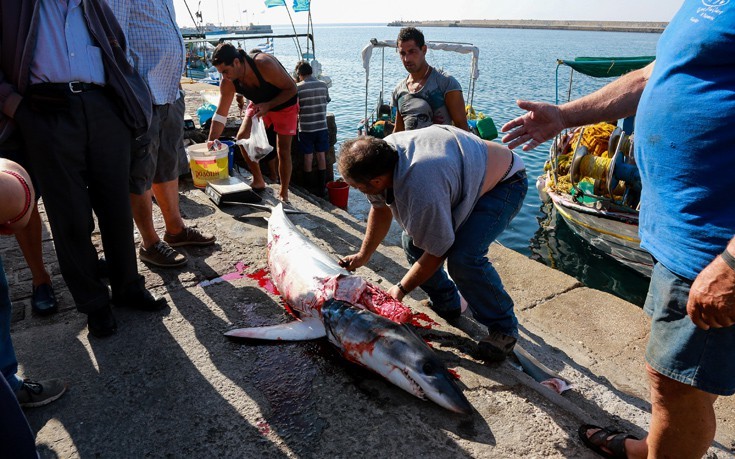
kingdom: Animalia
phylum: Chordata
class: Elasmobranchii
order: Lamniformes
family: Lamnidae
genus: Isurus
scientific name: Isurus oxyrinchus
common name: Shortfin mako
